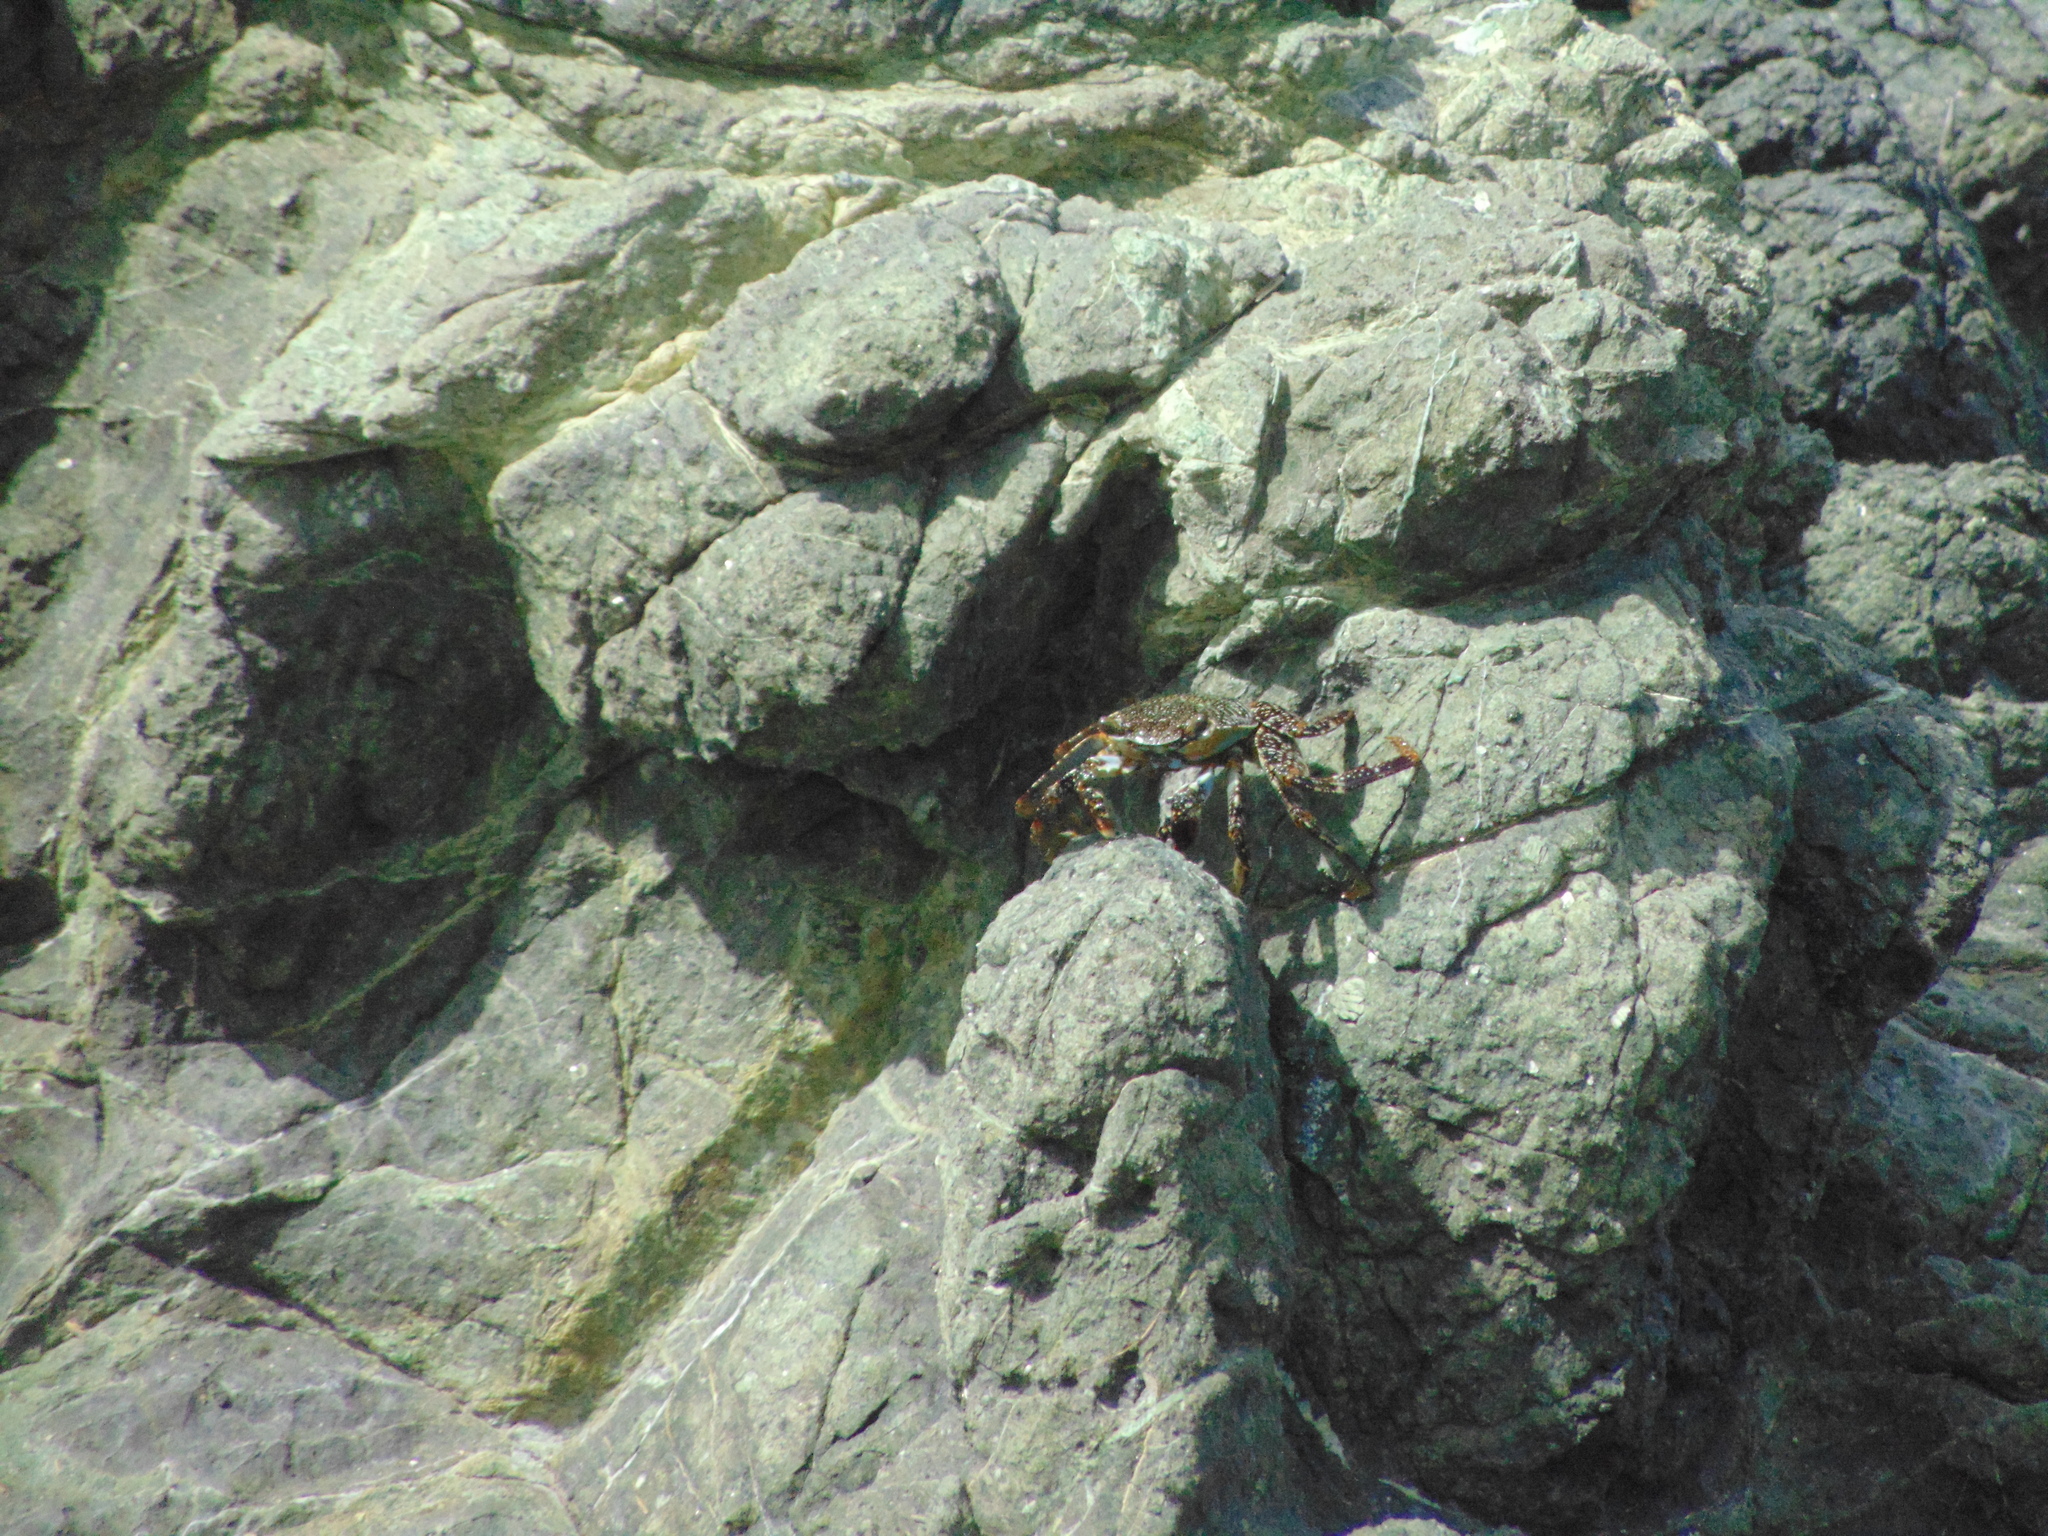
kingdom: Animalia
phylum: Arthropoda
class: Malacostraca
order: Decapoda
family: Grapsidae
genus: Grapsus
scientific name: Grapsus grapsus
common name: Sally lightfoot
